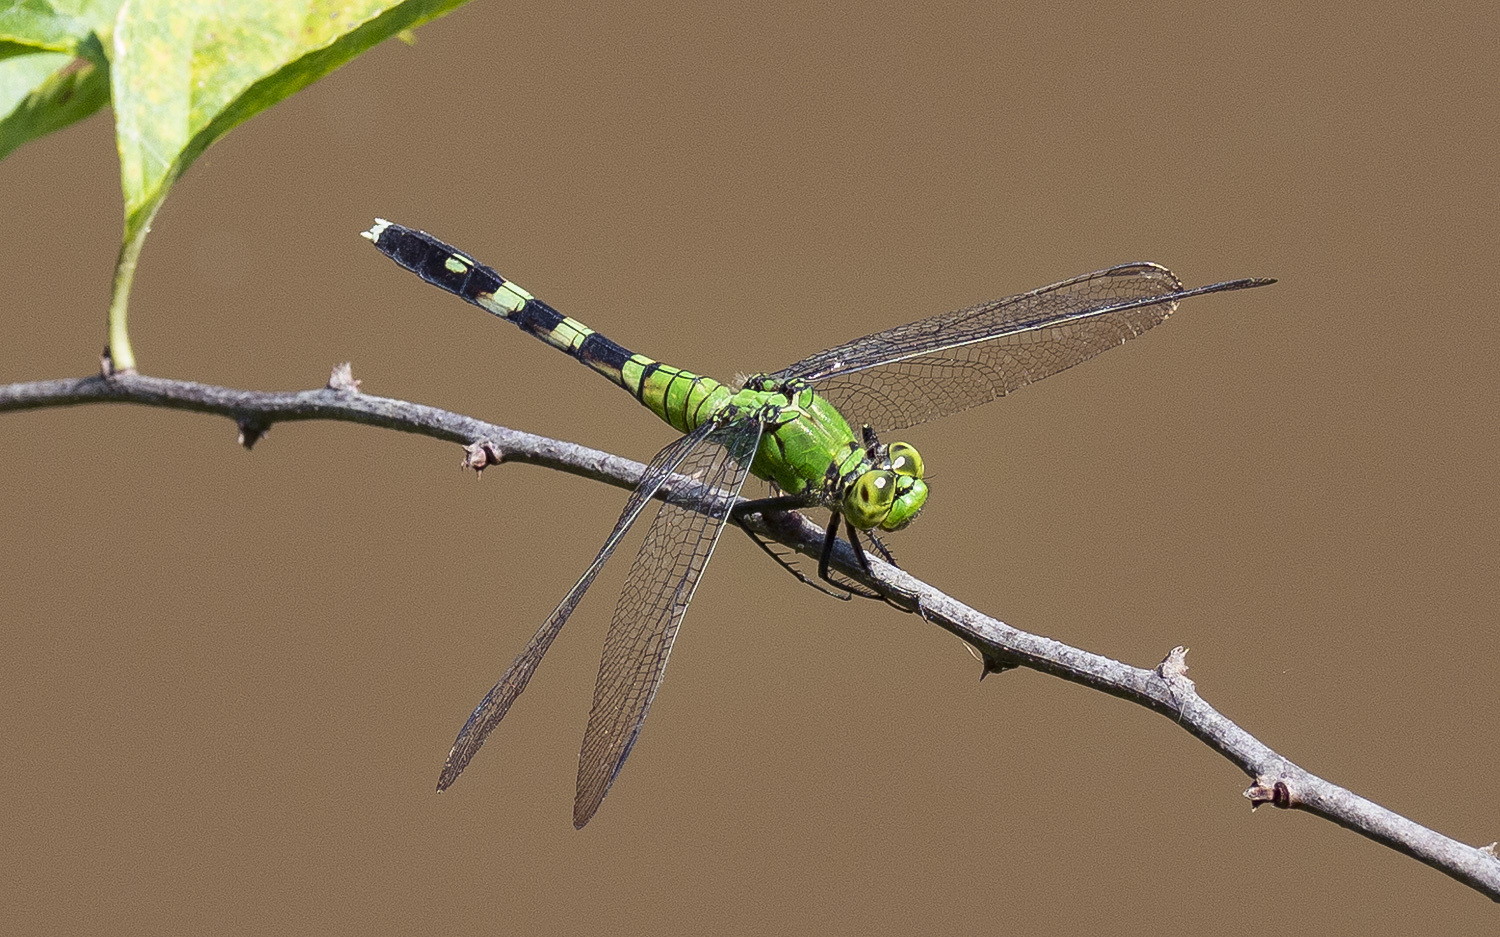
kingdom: Animalia
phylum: Arthropoda
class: Insecta
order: Odonata
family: Libellulidae
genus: Erythemis
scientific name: Erythemis simplicicollis
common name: Eastern pondhawk
